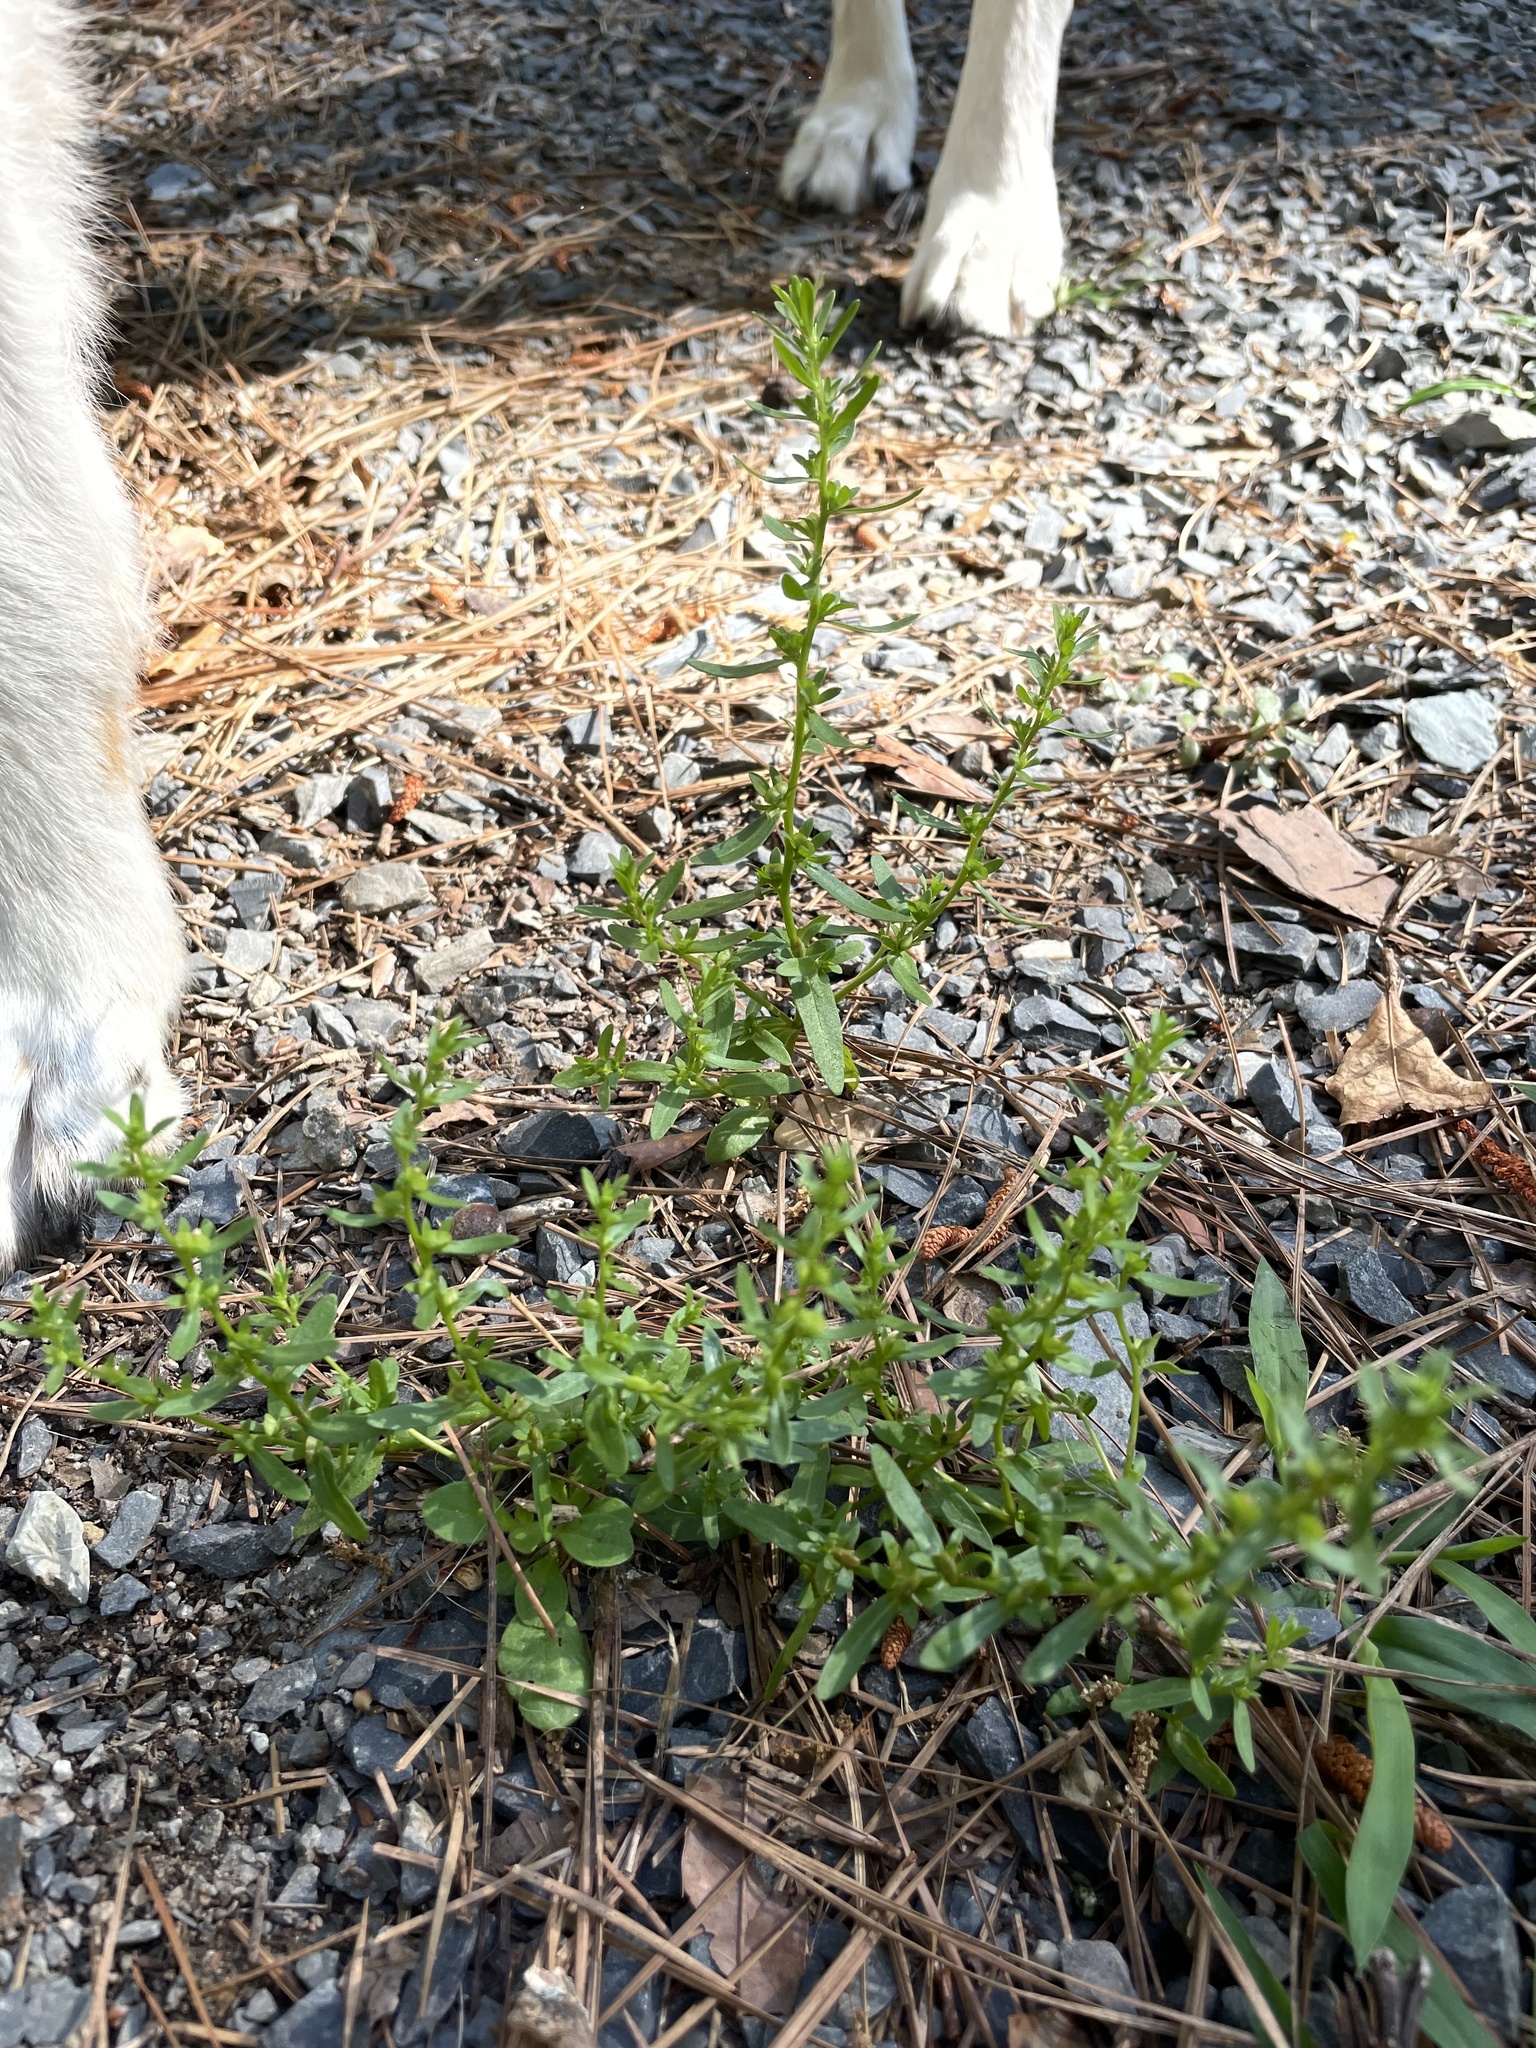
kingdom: Plantae
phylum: Tracheophyta
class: Magnoliopsida
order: Lamiales
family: Plantaginaceae
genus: Veronica
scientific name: Veronica peregrina
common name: Neckweed
